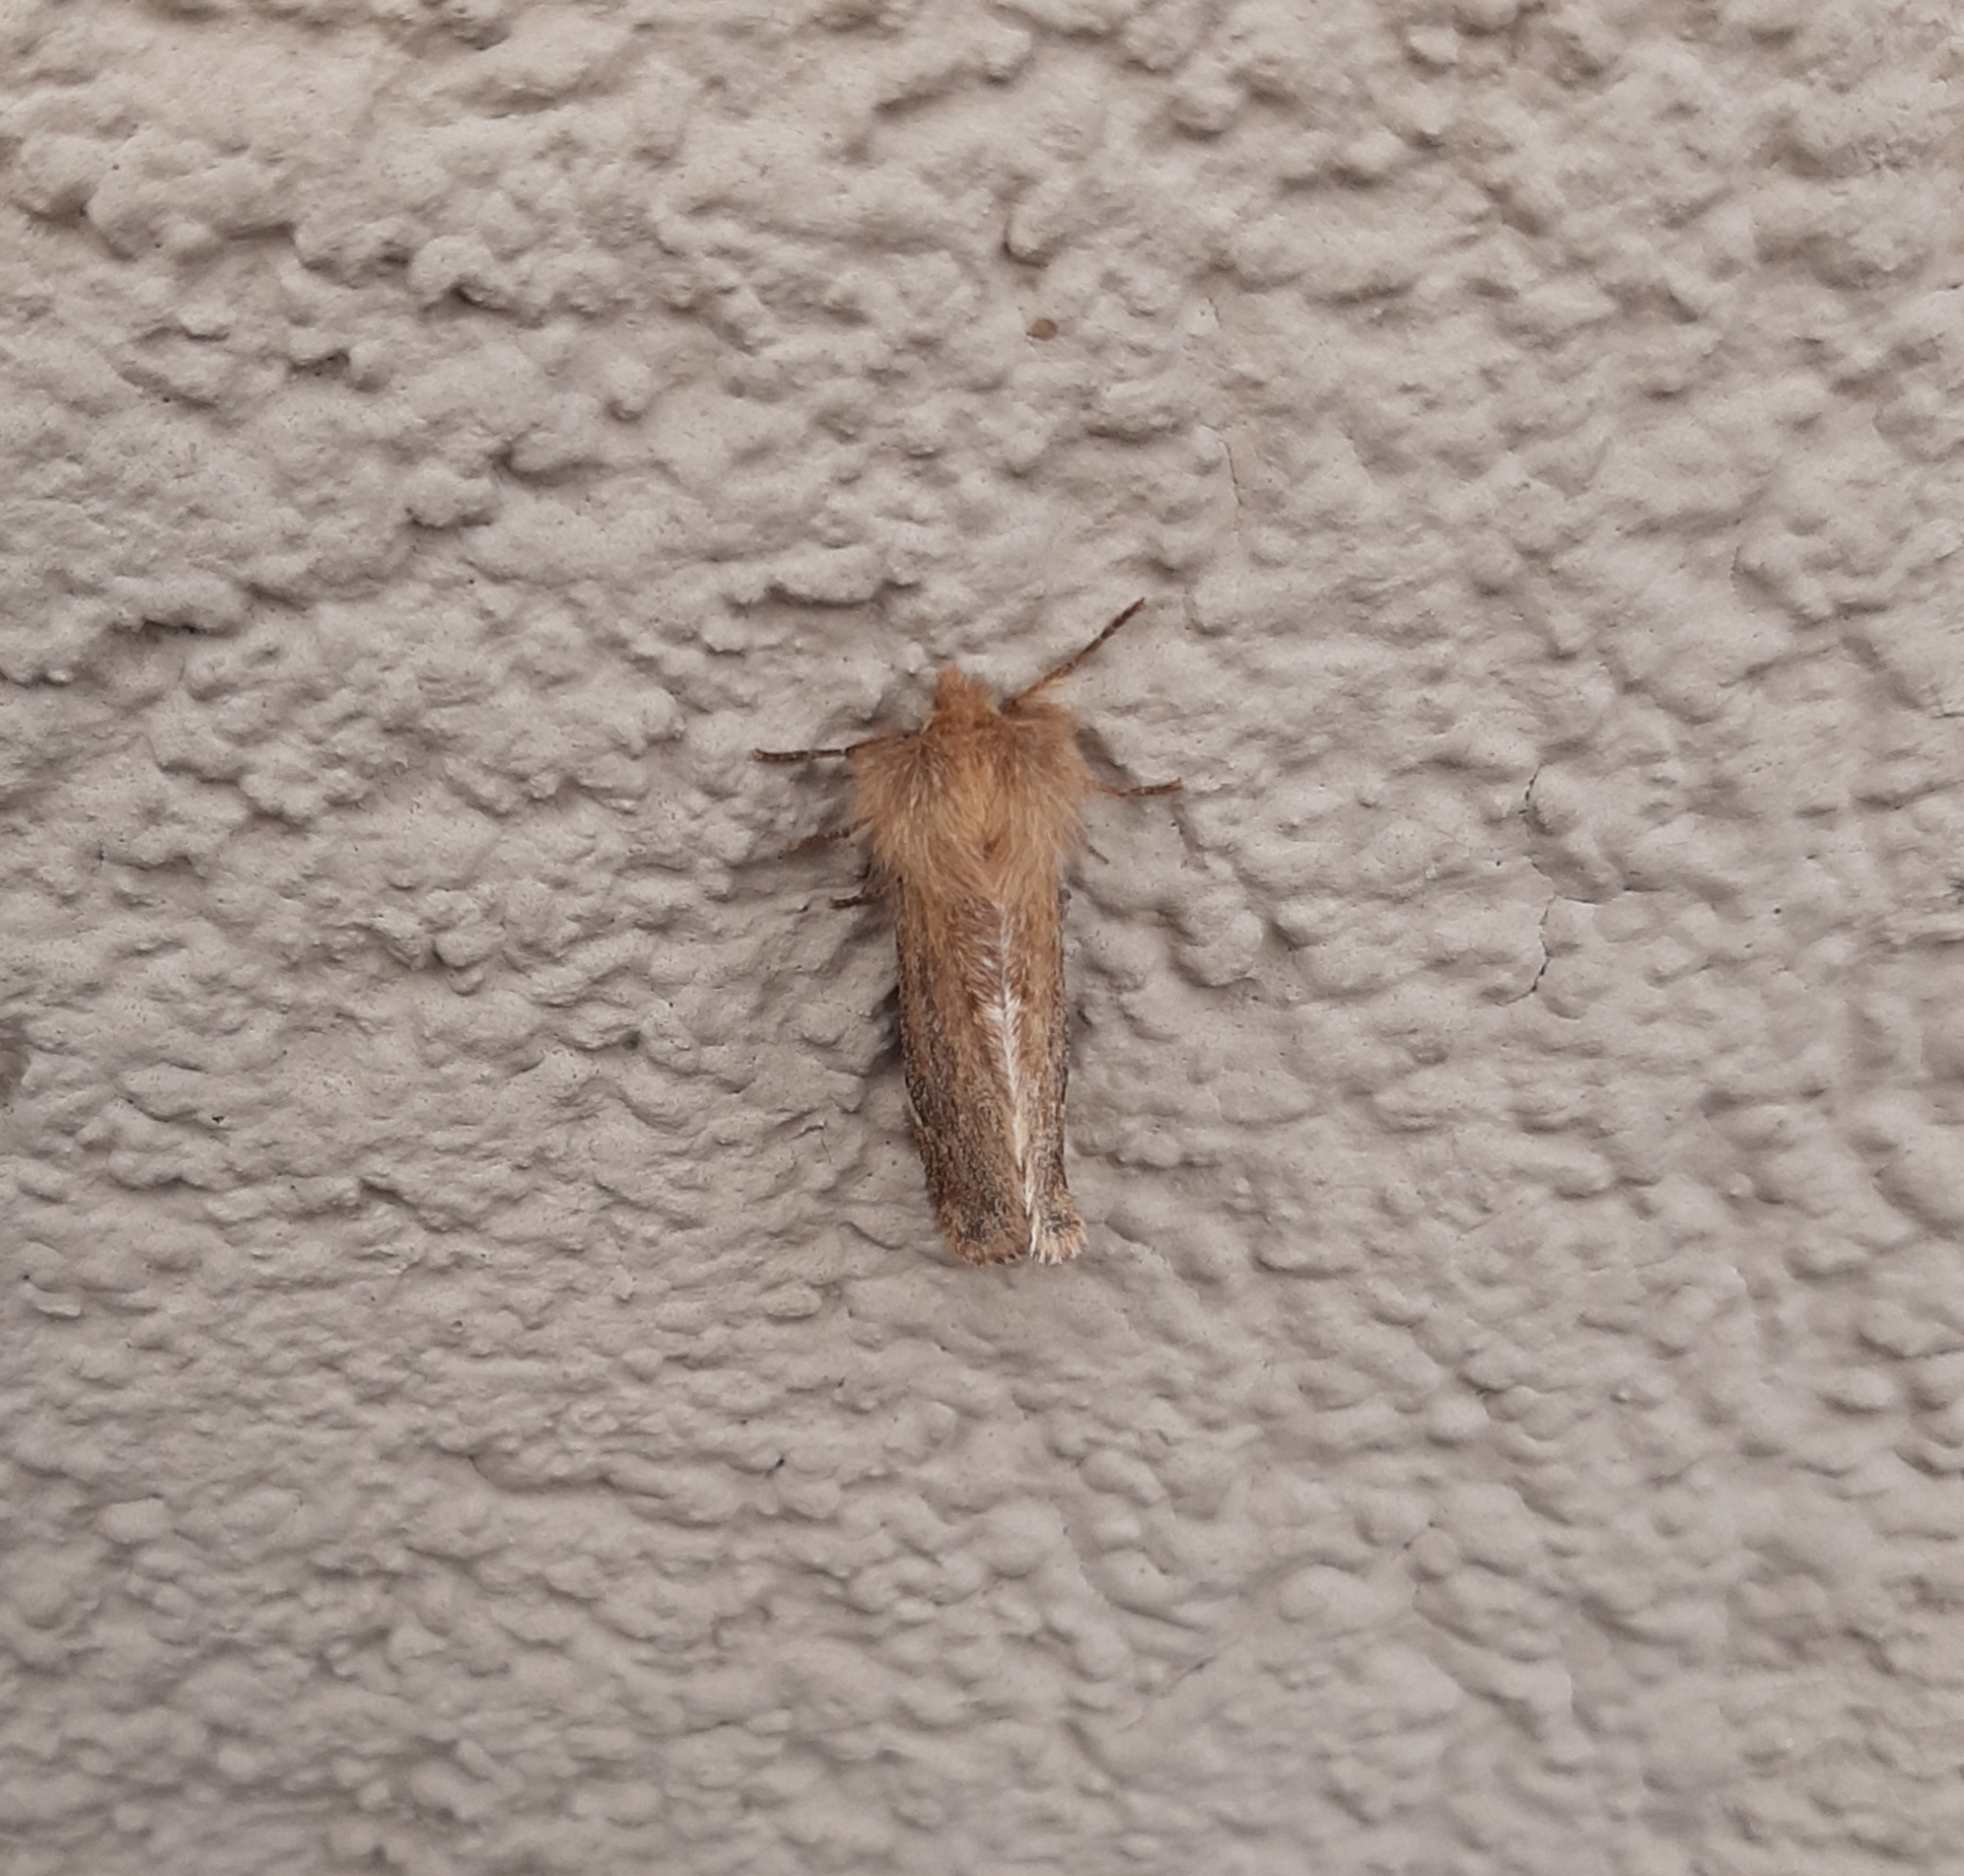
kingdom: Animalia
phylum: Arthropoda
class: Insecta
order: Lepidoptera
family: Notodontidae
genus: Ptilophora
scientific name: Ptilophora plumigera
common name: Plumed prominent
